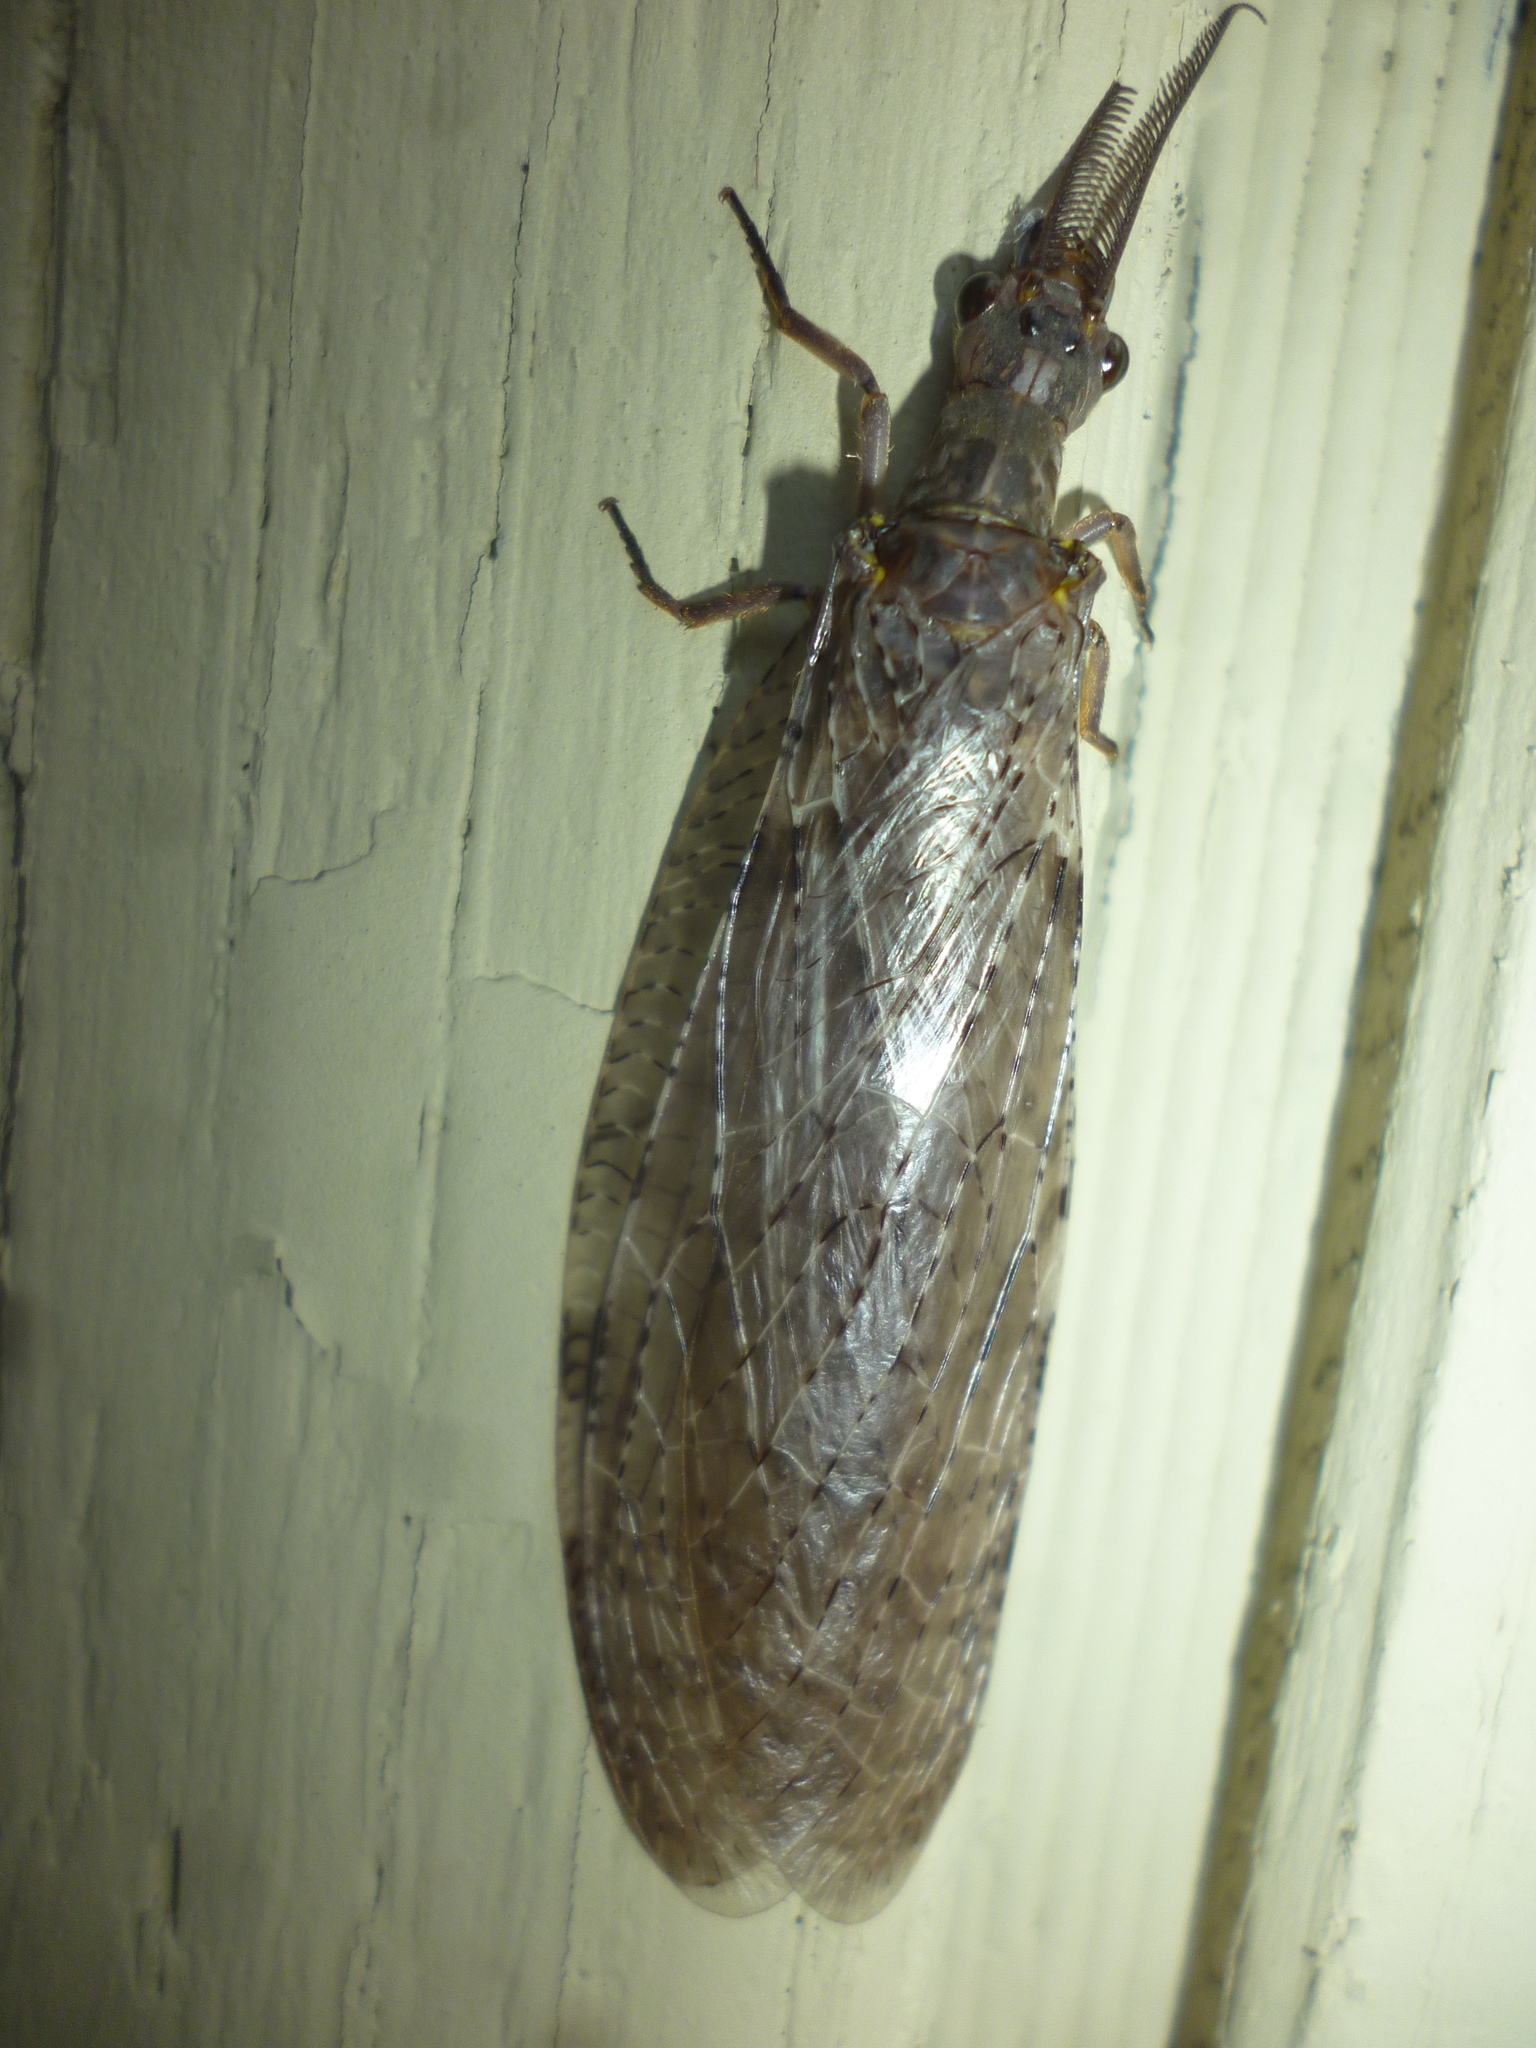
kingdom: Animalia
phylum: Arthropoda
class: Insecta
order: Megaloptera
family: Corydalidae
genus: Chauliodes
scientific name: Chauliodes pectinicornis
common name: Summer fishfly
